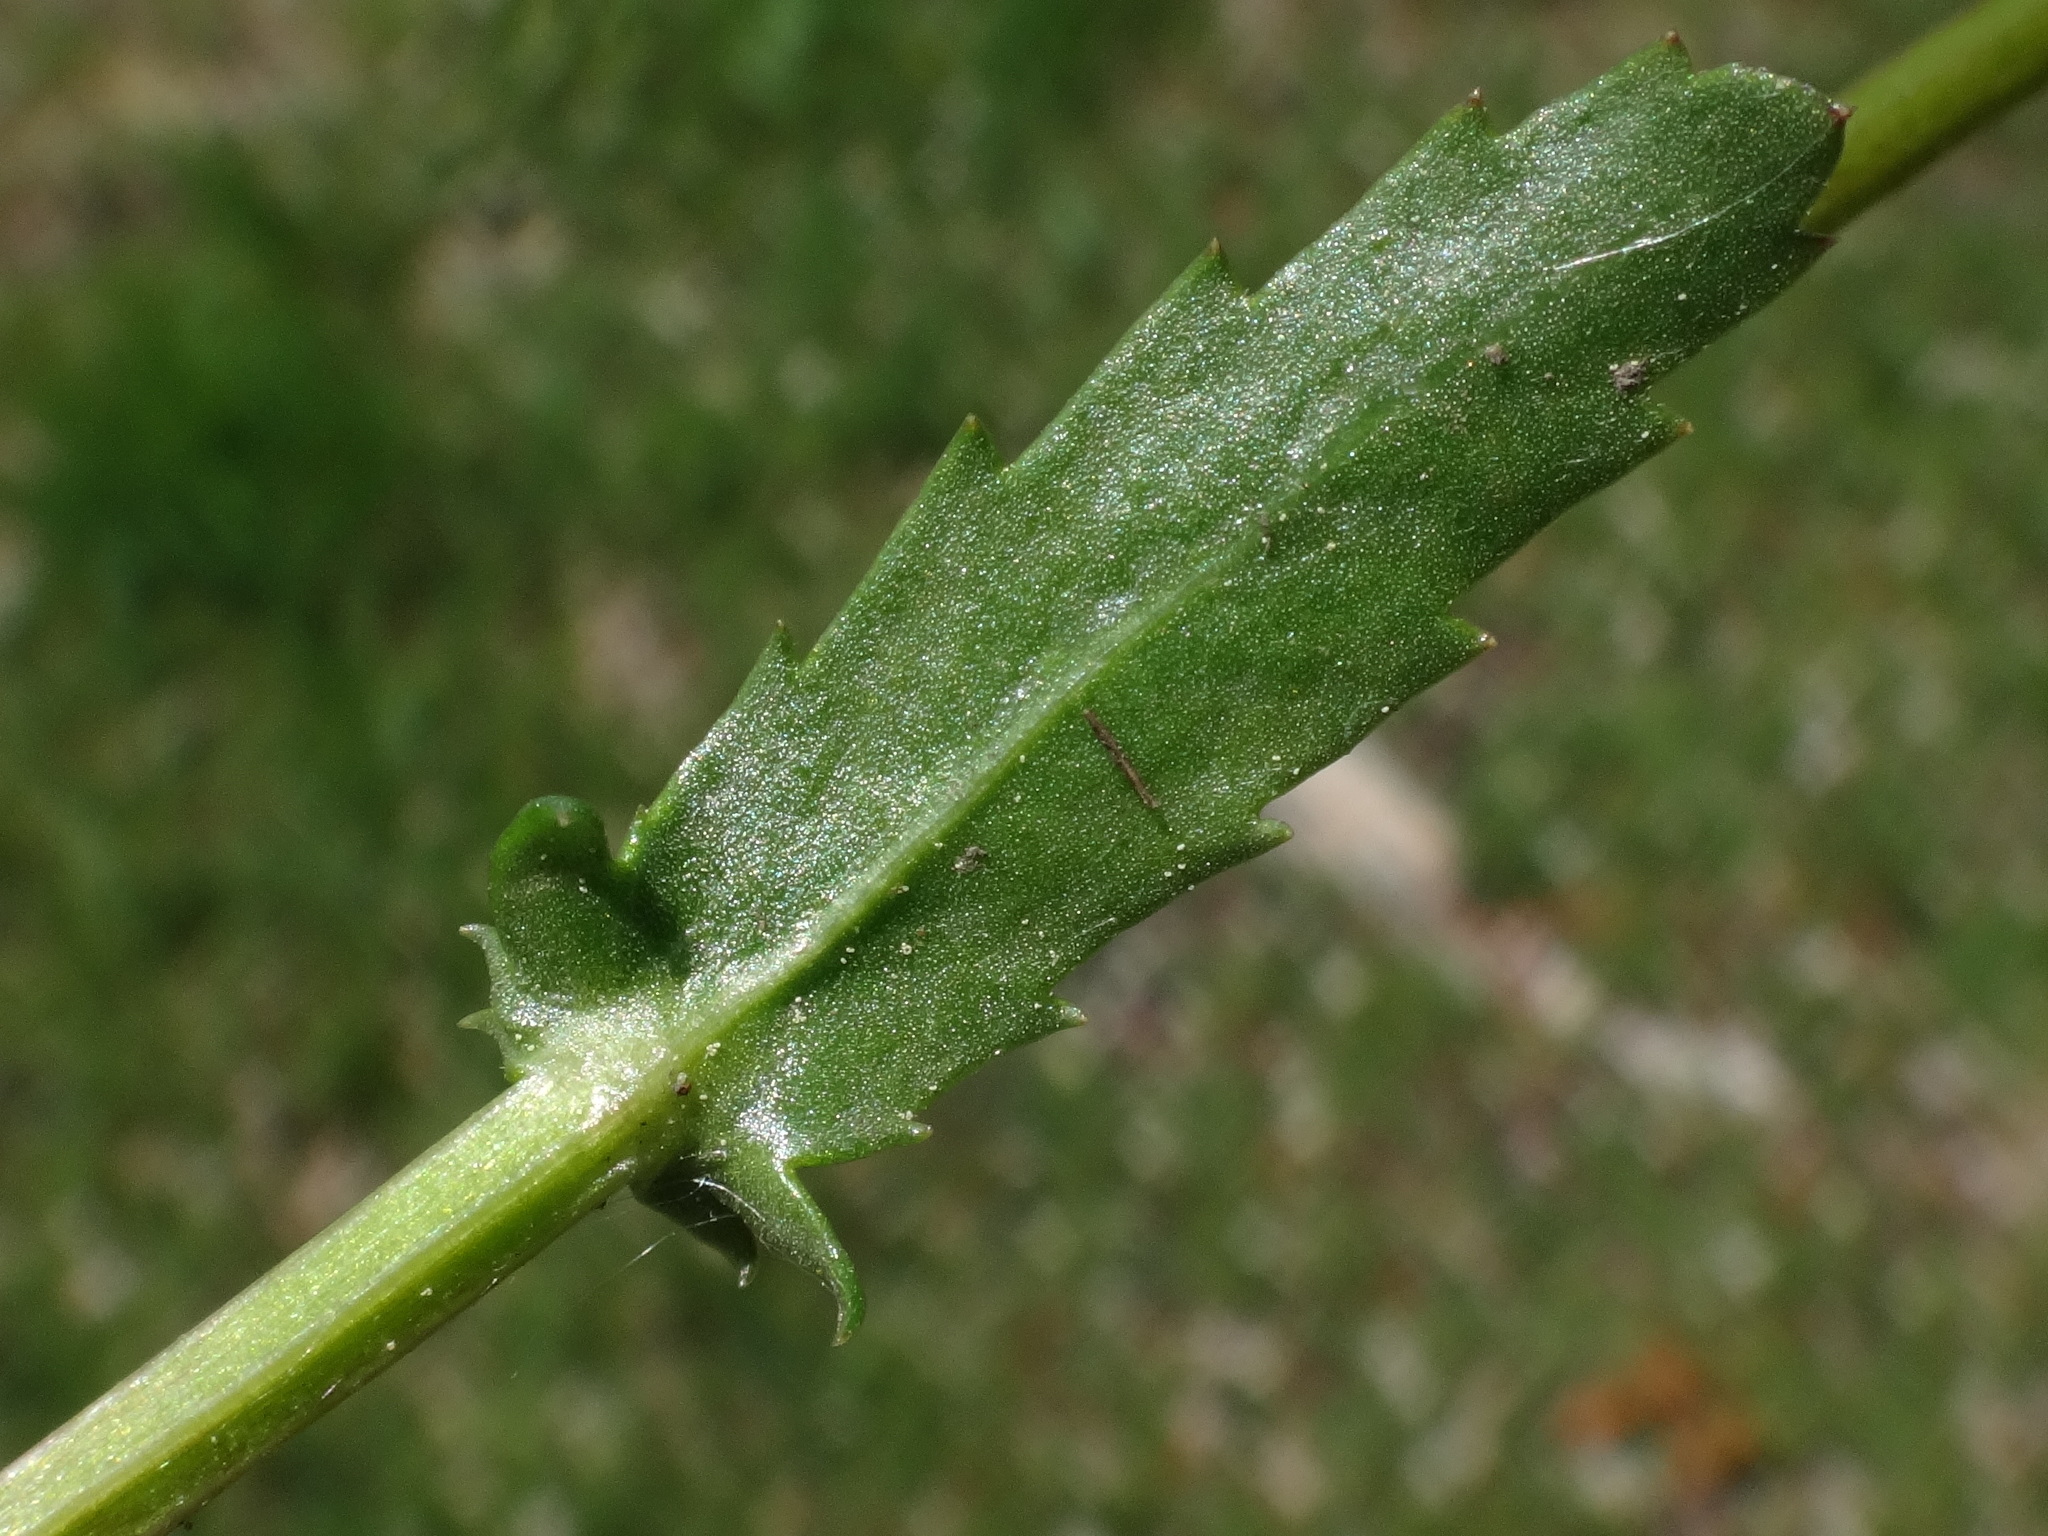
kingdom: Plantae
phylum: Tracheophyta
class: Magnoliopsida
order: Asterales
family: Asteraceae
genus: Leucanthemum
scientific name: Leucanthemum vulgare
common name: Oxeye daisy
